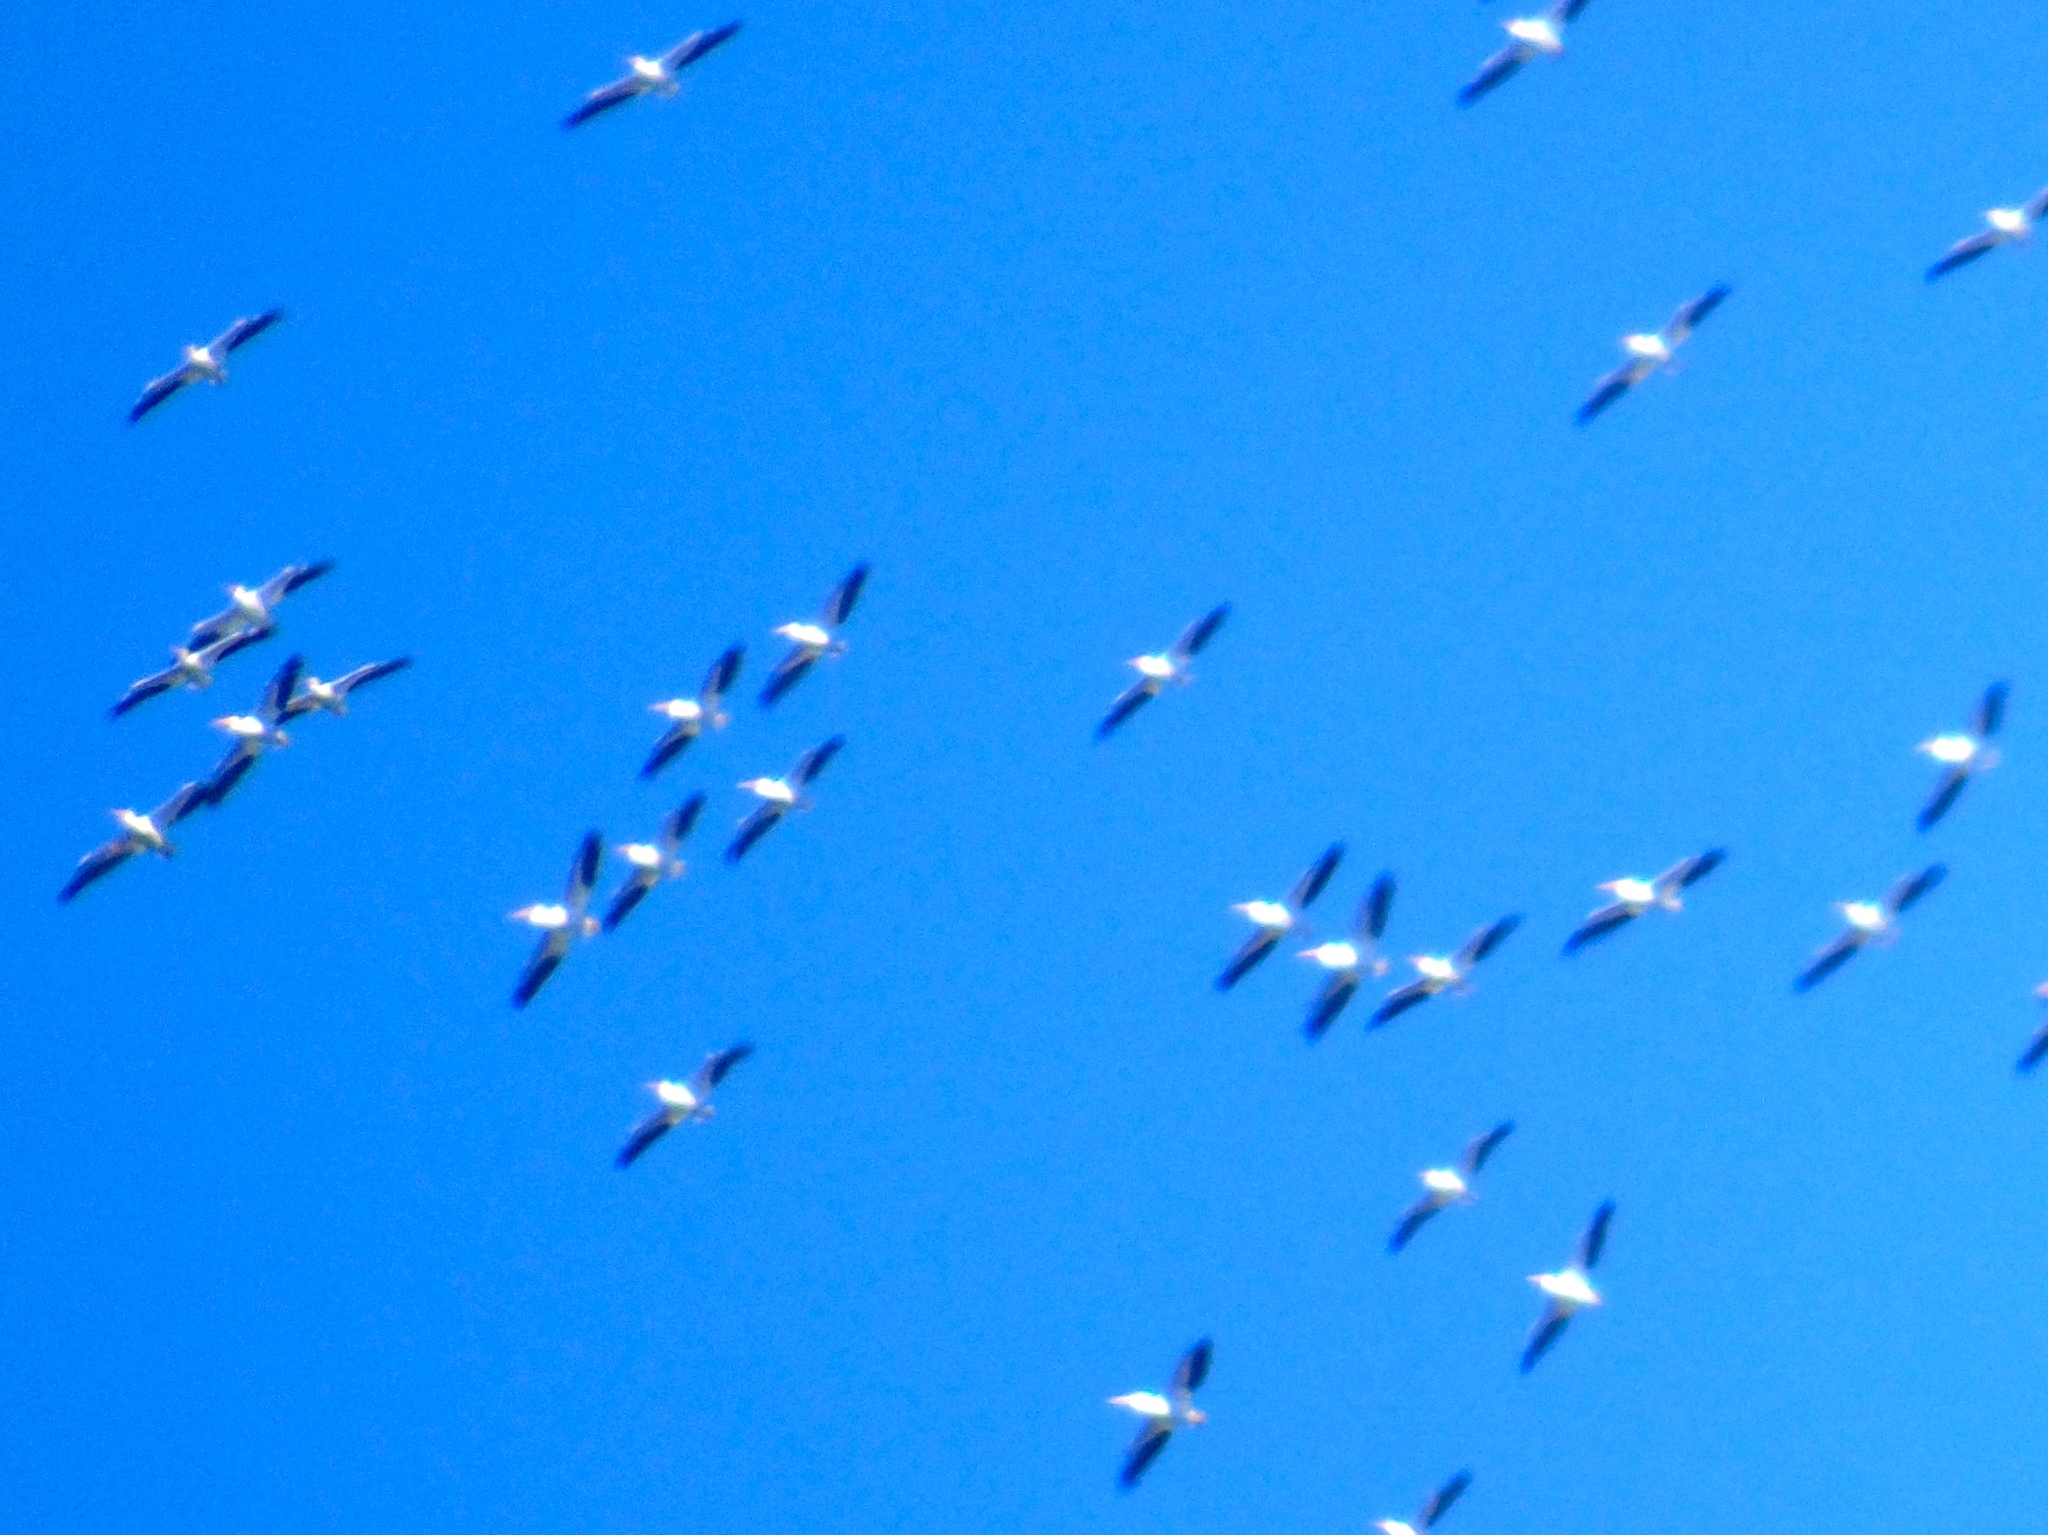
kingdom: Animalia
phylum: Chordata
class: Aves
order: Pelecaniformes
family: Pelecanidae
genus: Pelecanus
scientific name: Pelecanus erythrorhynchos
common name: American white pelican
